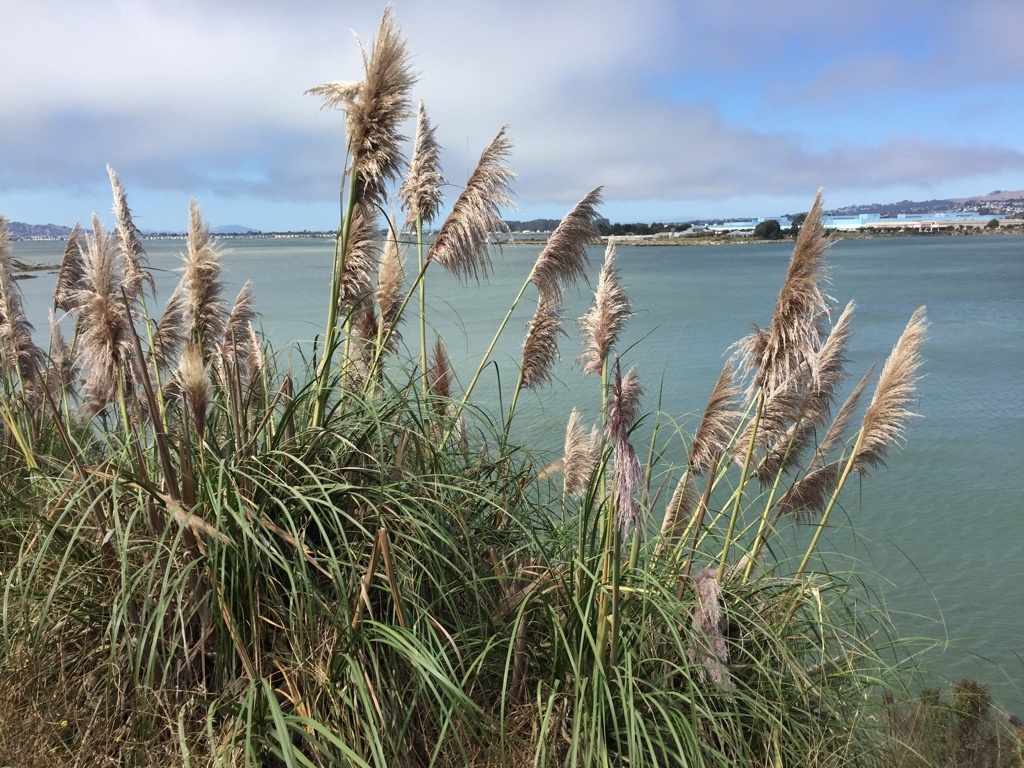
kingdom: Plantae
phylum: Tracheophyta
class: Liliopsida
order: Poales
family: Poaceae
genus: Cortaderia
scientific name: Cortaderia jubata
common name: Purple pampas grass
